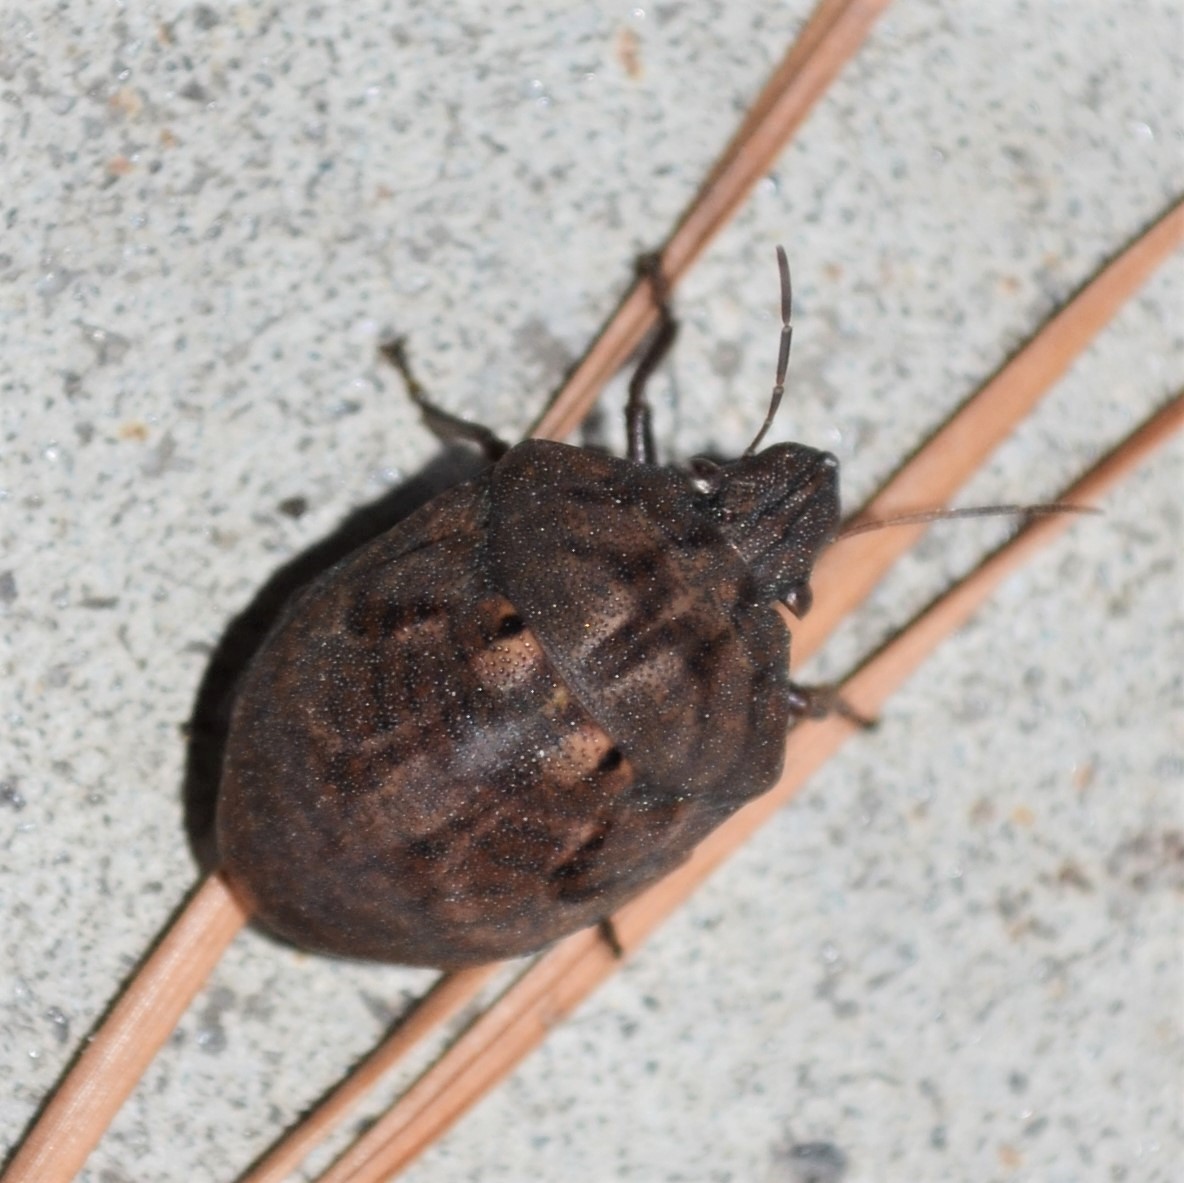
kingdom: Animalia
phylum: Arthropoda
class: Insecta
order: Hemiptera
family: Scutelleridae
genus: Tetyra
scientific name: Tetyra bipunctata
